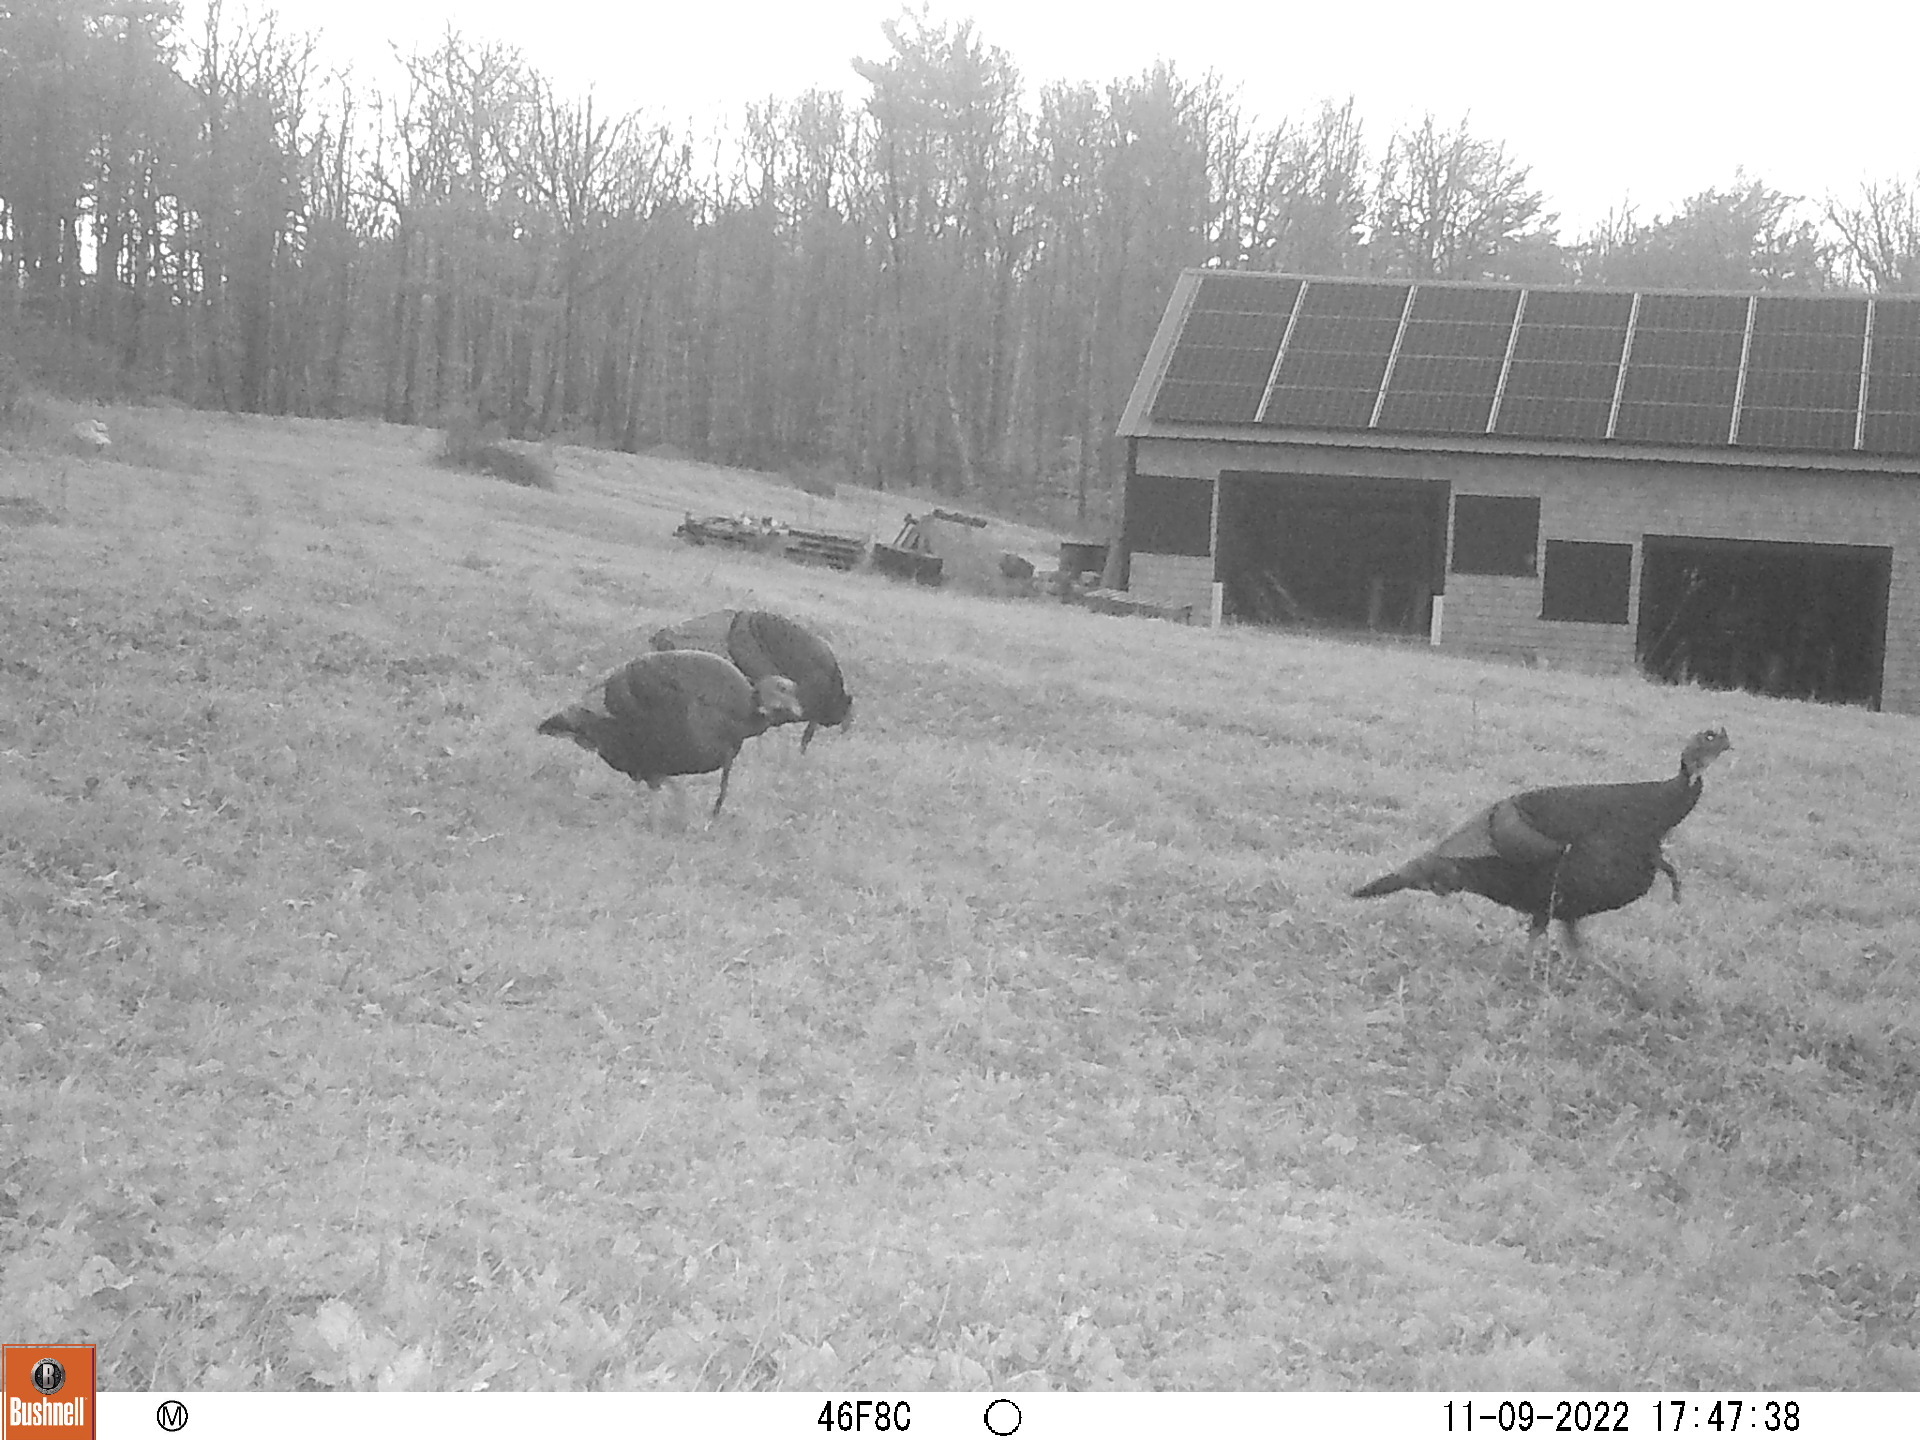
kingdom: Animalia
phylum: Chordata
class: Aves
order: Galliformes
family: Phasianidae
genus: Meleagris
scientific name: Meleagris gallopavo
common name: Wild turkey
